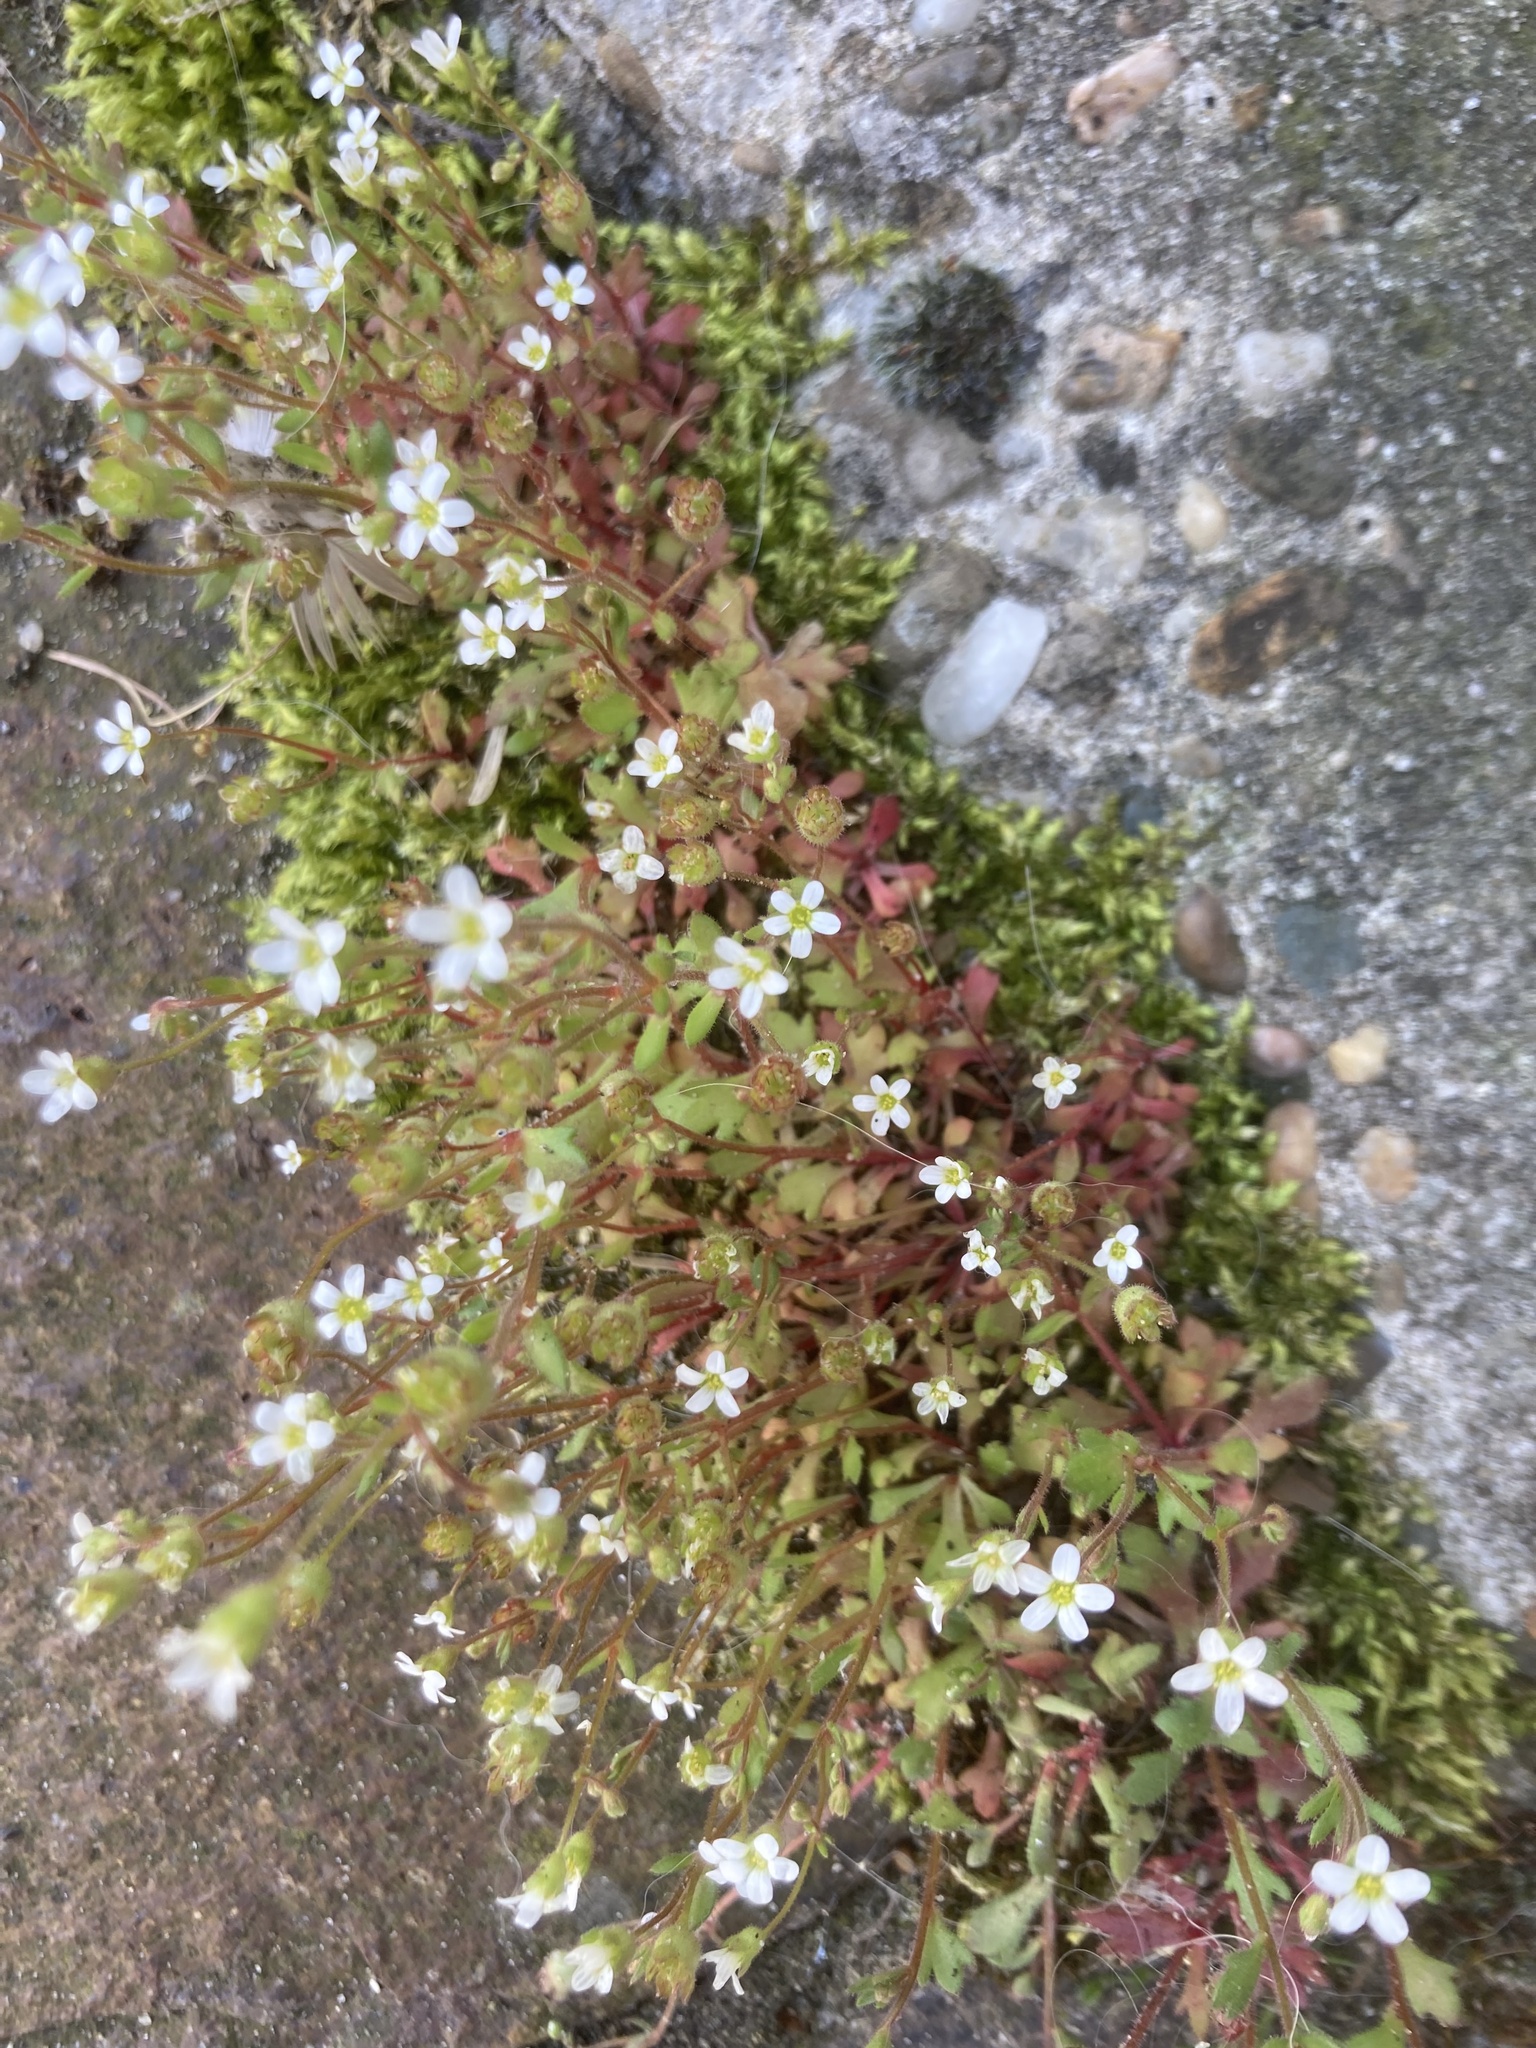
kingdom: Plantae
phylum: Tracheophyta
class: Magnoliopsida
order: Saxifragales
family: Saxifragaceae
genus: Saxifraga
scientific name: Saxifraga tridactylites
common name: Rue-leaved saxifrage
